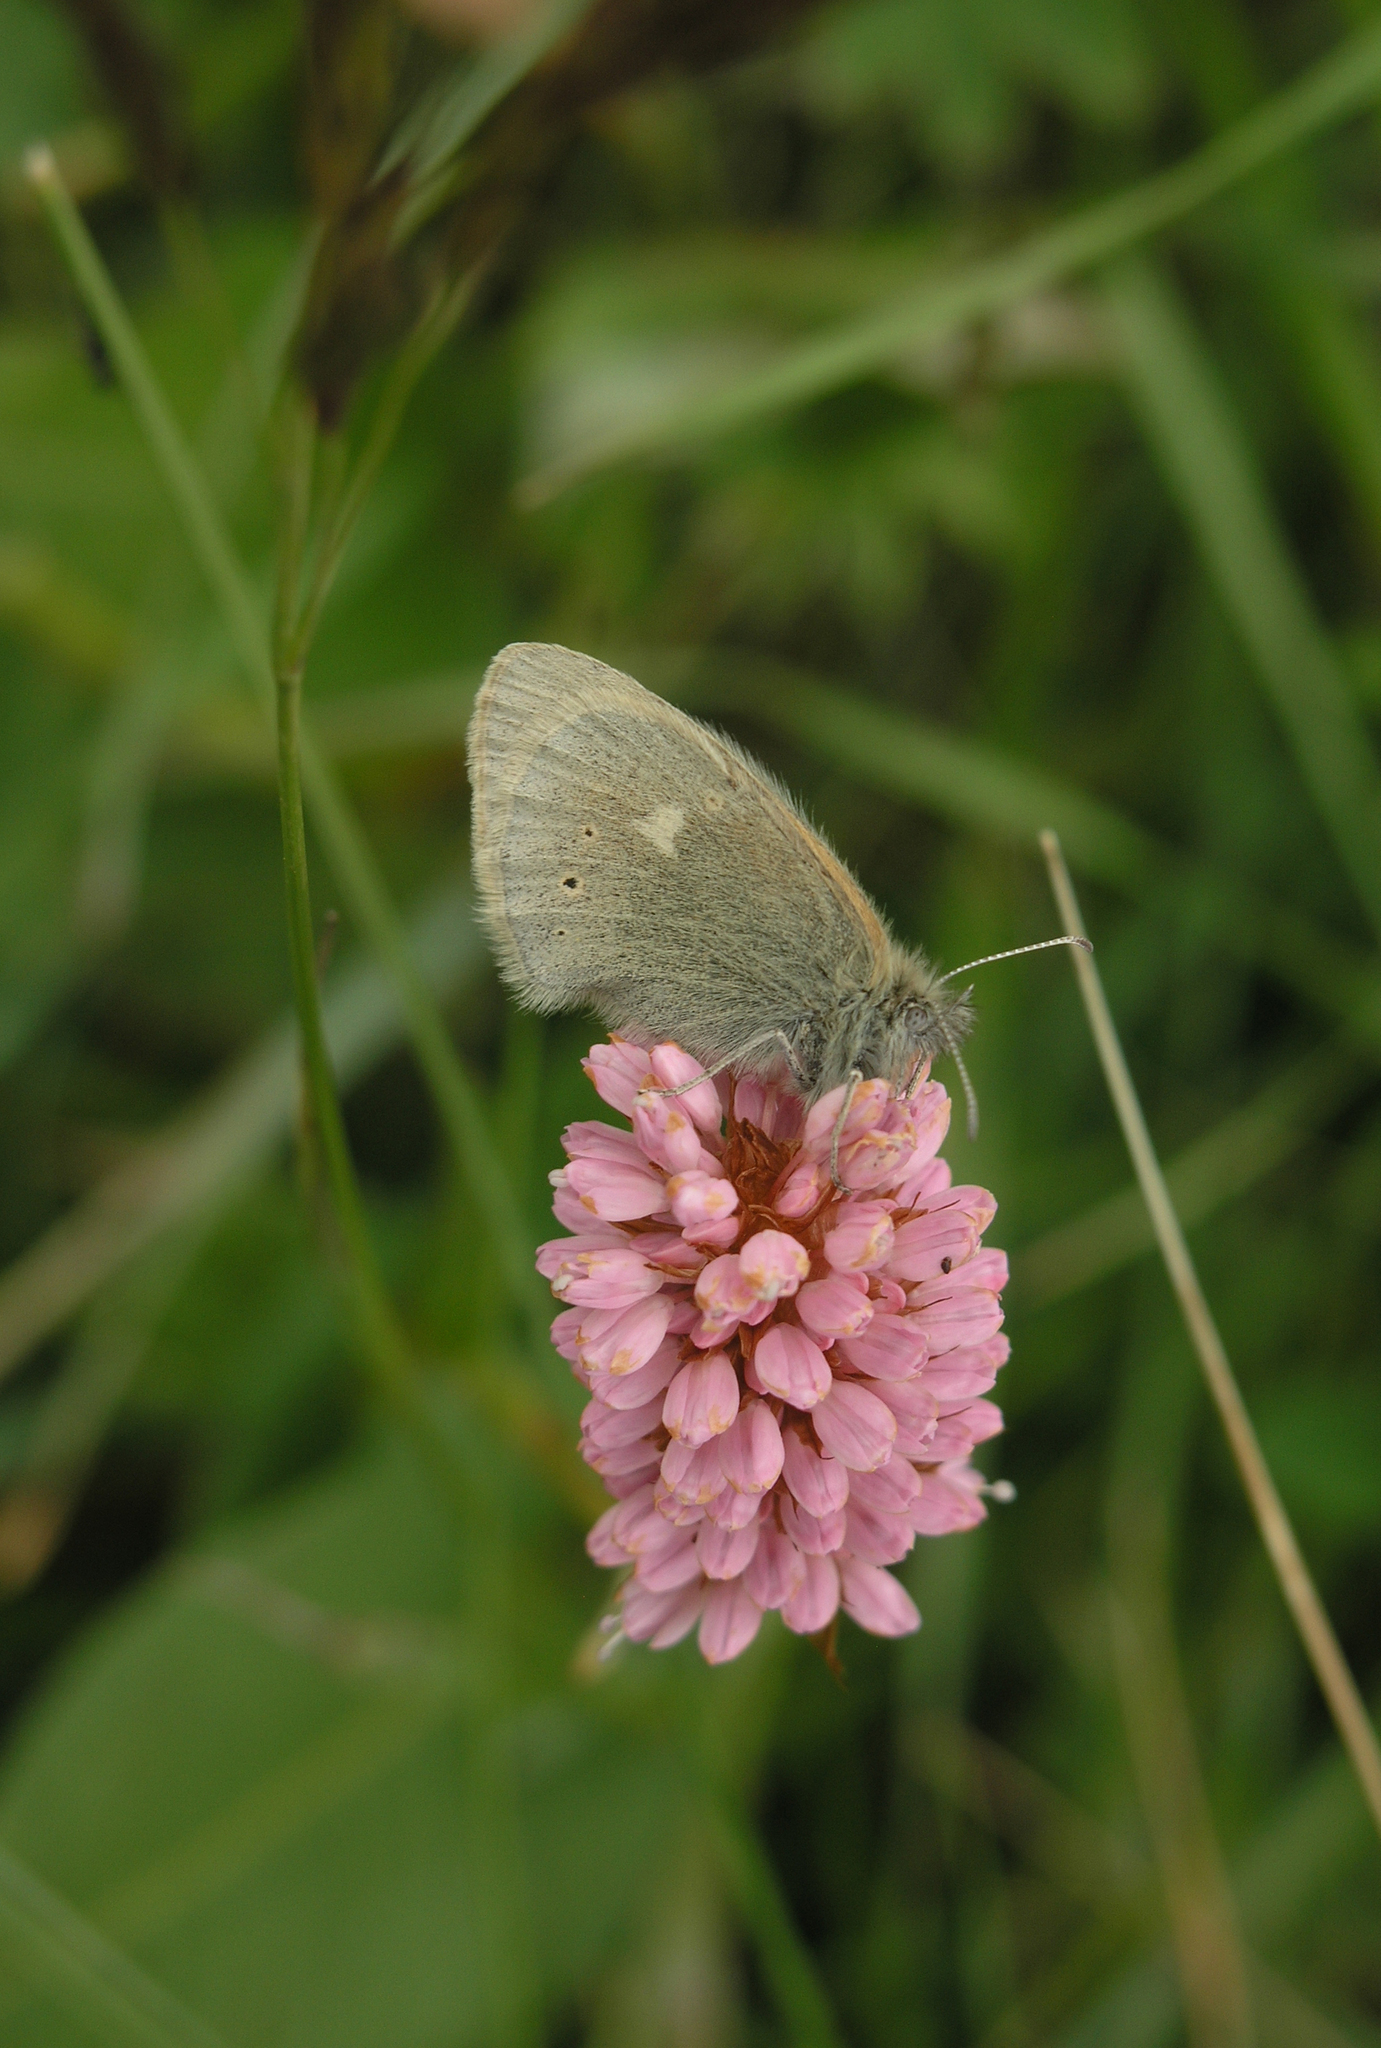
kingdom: Plantae
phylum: Tracheophyta
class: Magnoliopsida
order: Caryophyllales
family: Polygonaceae
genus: Bistorta
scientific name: Bistorta carnea
